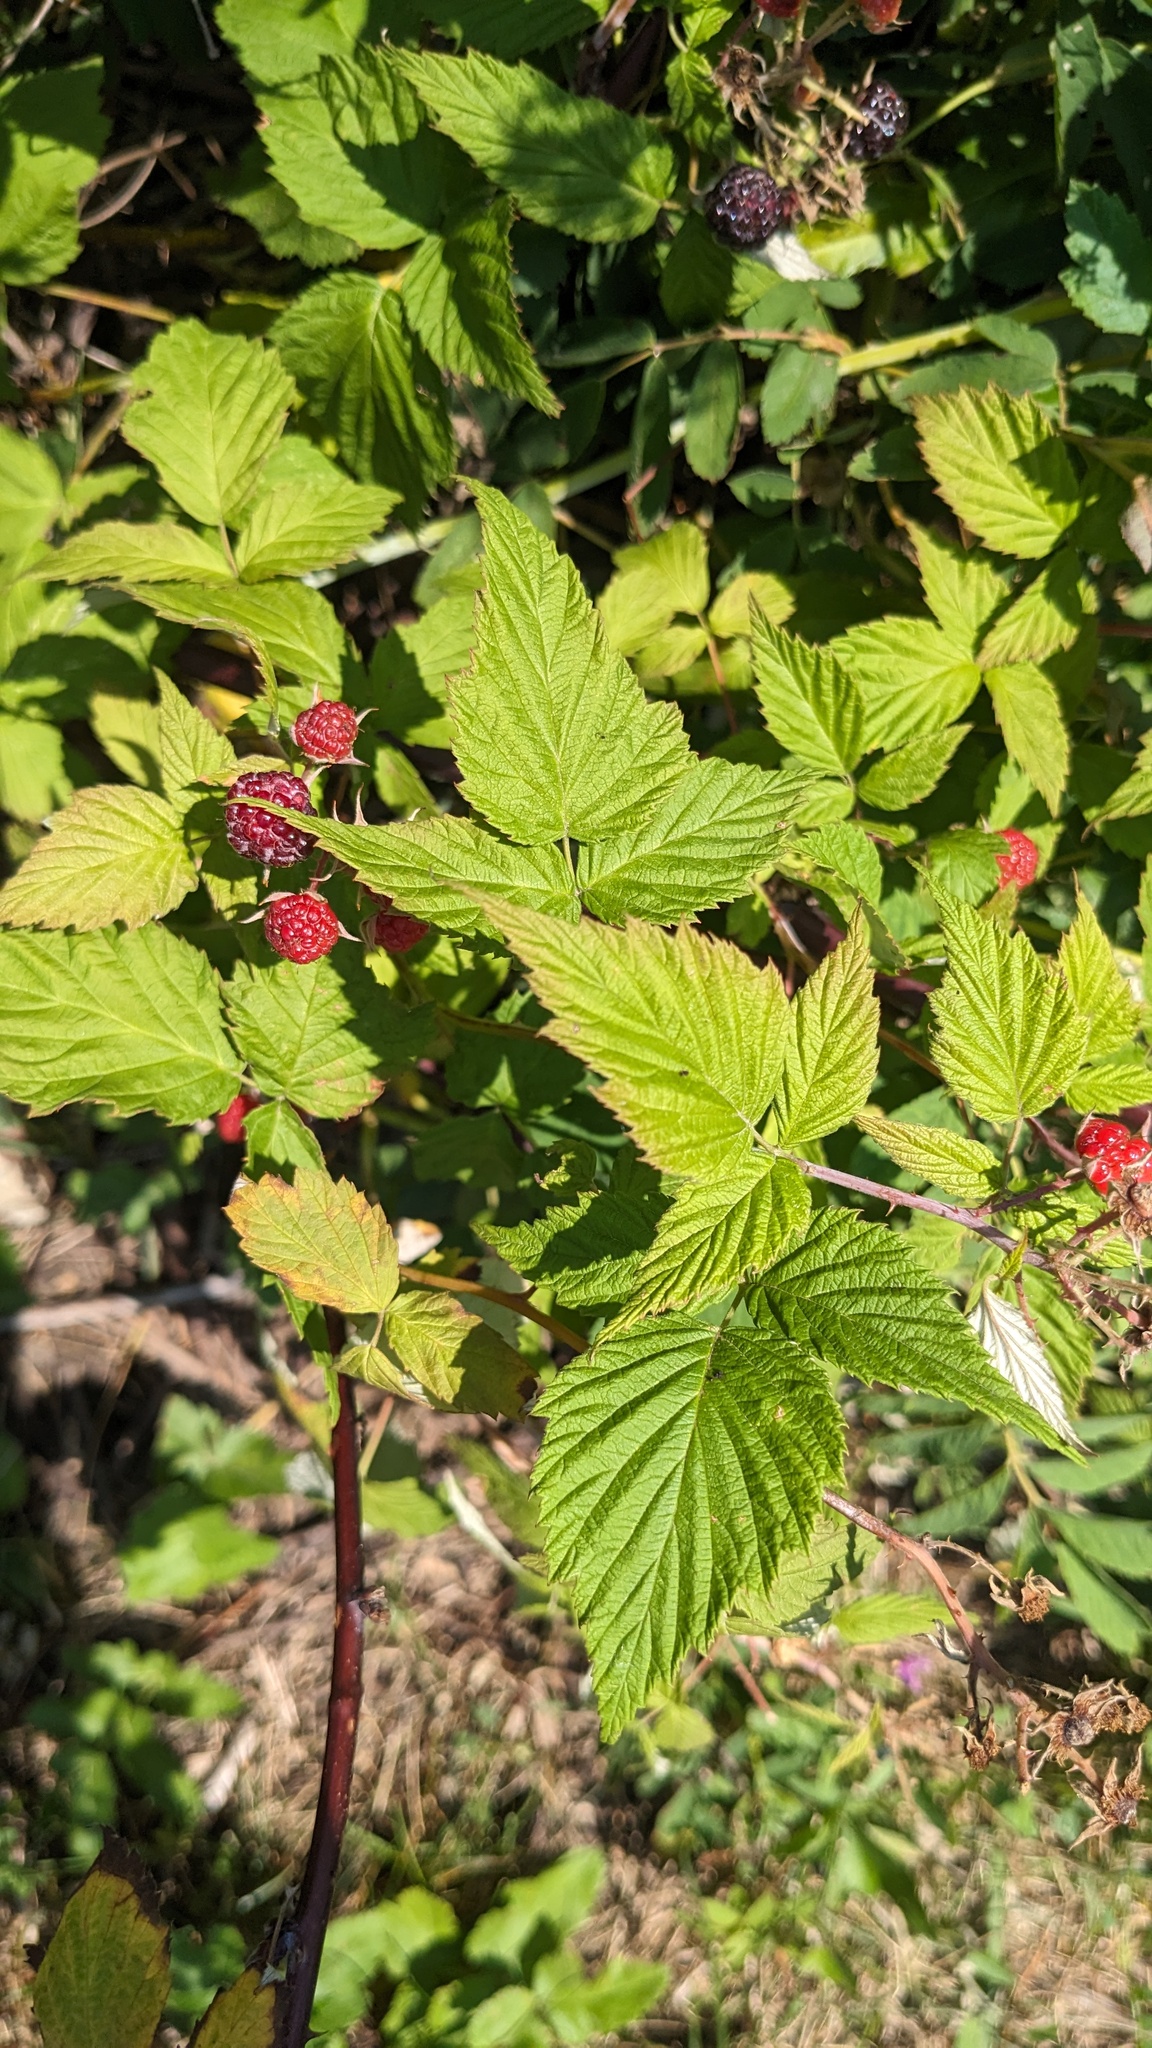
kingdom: Plantae
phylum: Tracheophyta
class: Magnoliopsida
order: Rosales
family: Rosaceae
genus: Rubus
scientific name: Rubus occidentalis
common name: Black raspberry
